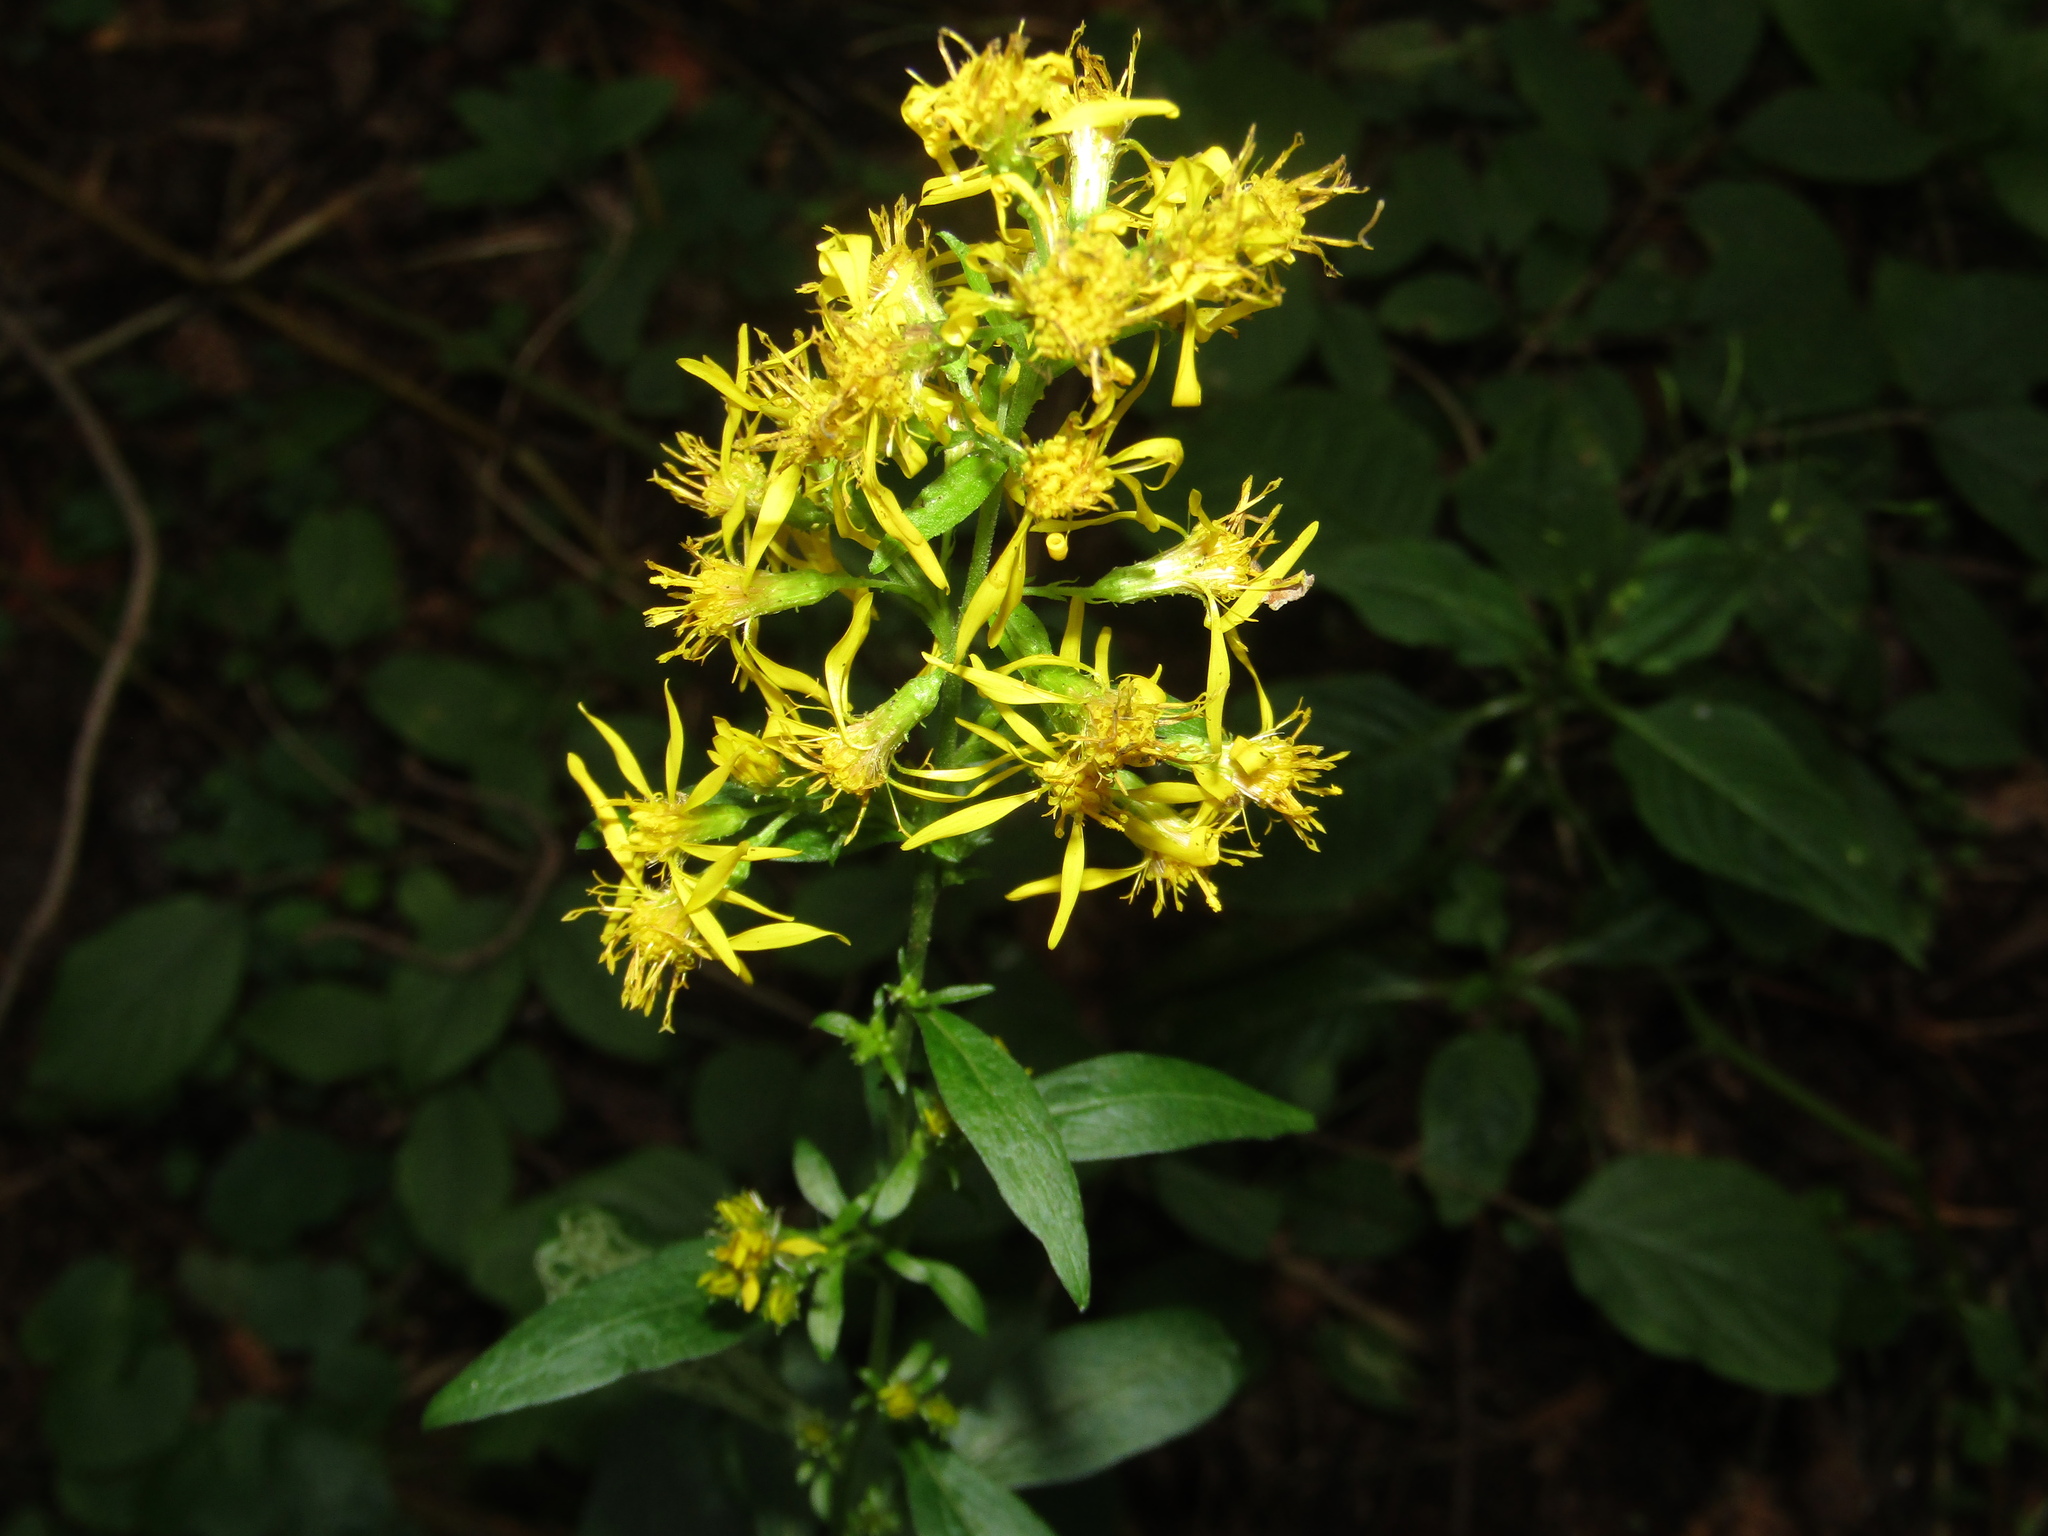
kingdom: Plantae
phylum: Tracheophyta
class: Magnoliopsida
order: Asterales
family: Asteraceae
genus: Solidago
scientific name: Solidago virgaurea
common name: Goldenrod
